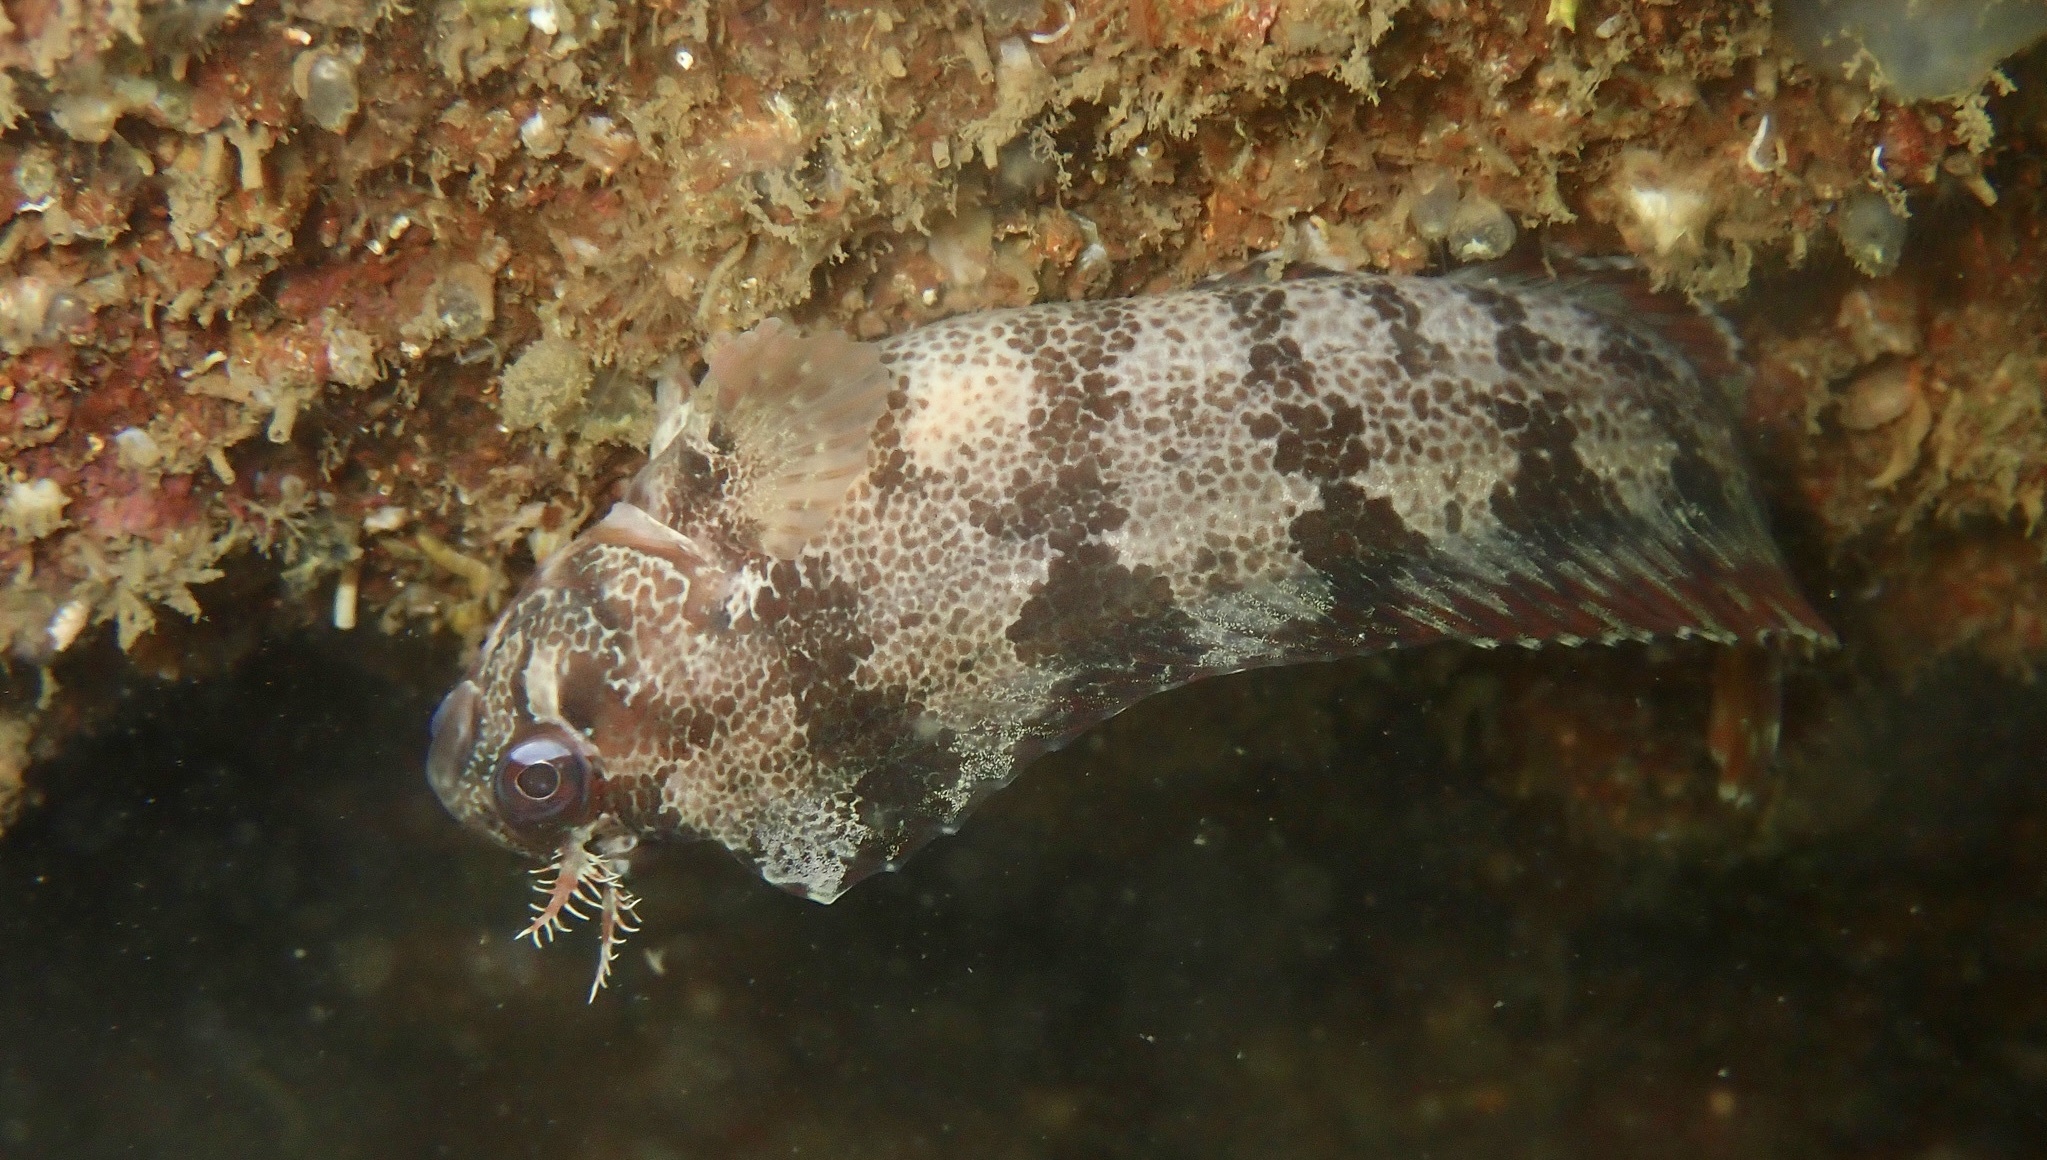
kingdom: Animalia
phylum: Chordata
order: Perciformes
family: Blenniidae
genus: Parablennius
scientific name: Parablennius gattorugine
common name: Tompot blenny
